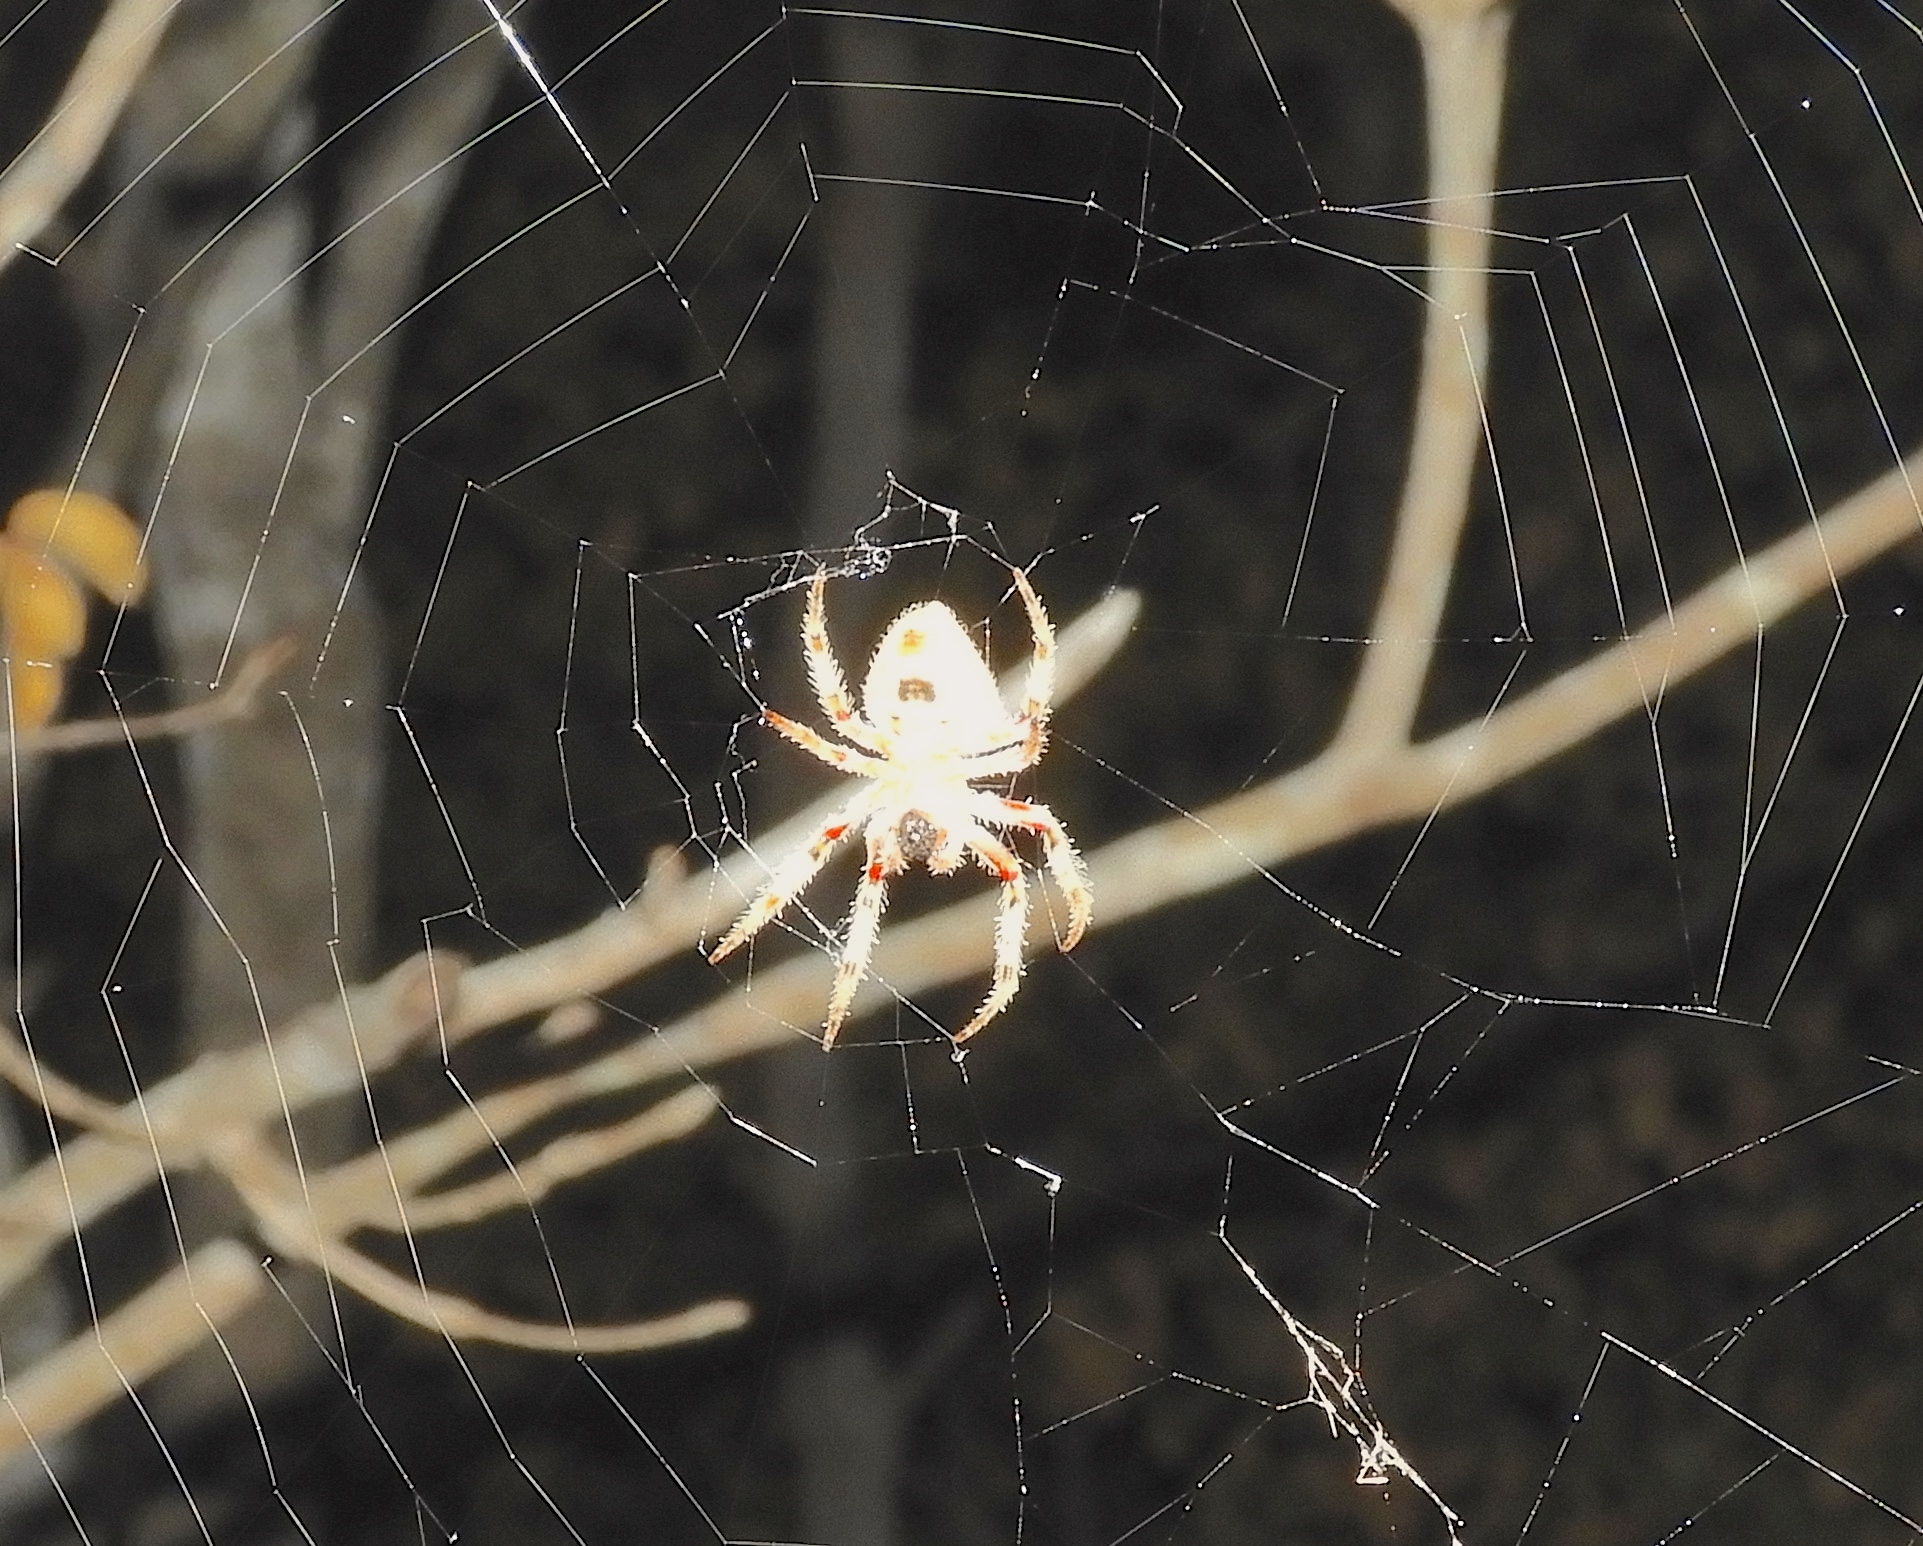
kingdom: Animalia
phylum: Arthropoda
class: Arachnida
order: Araneae
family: Araneidae
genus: Eriophora
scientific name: Eriophora
